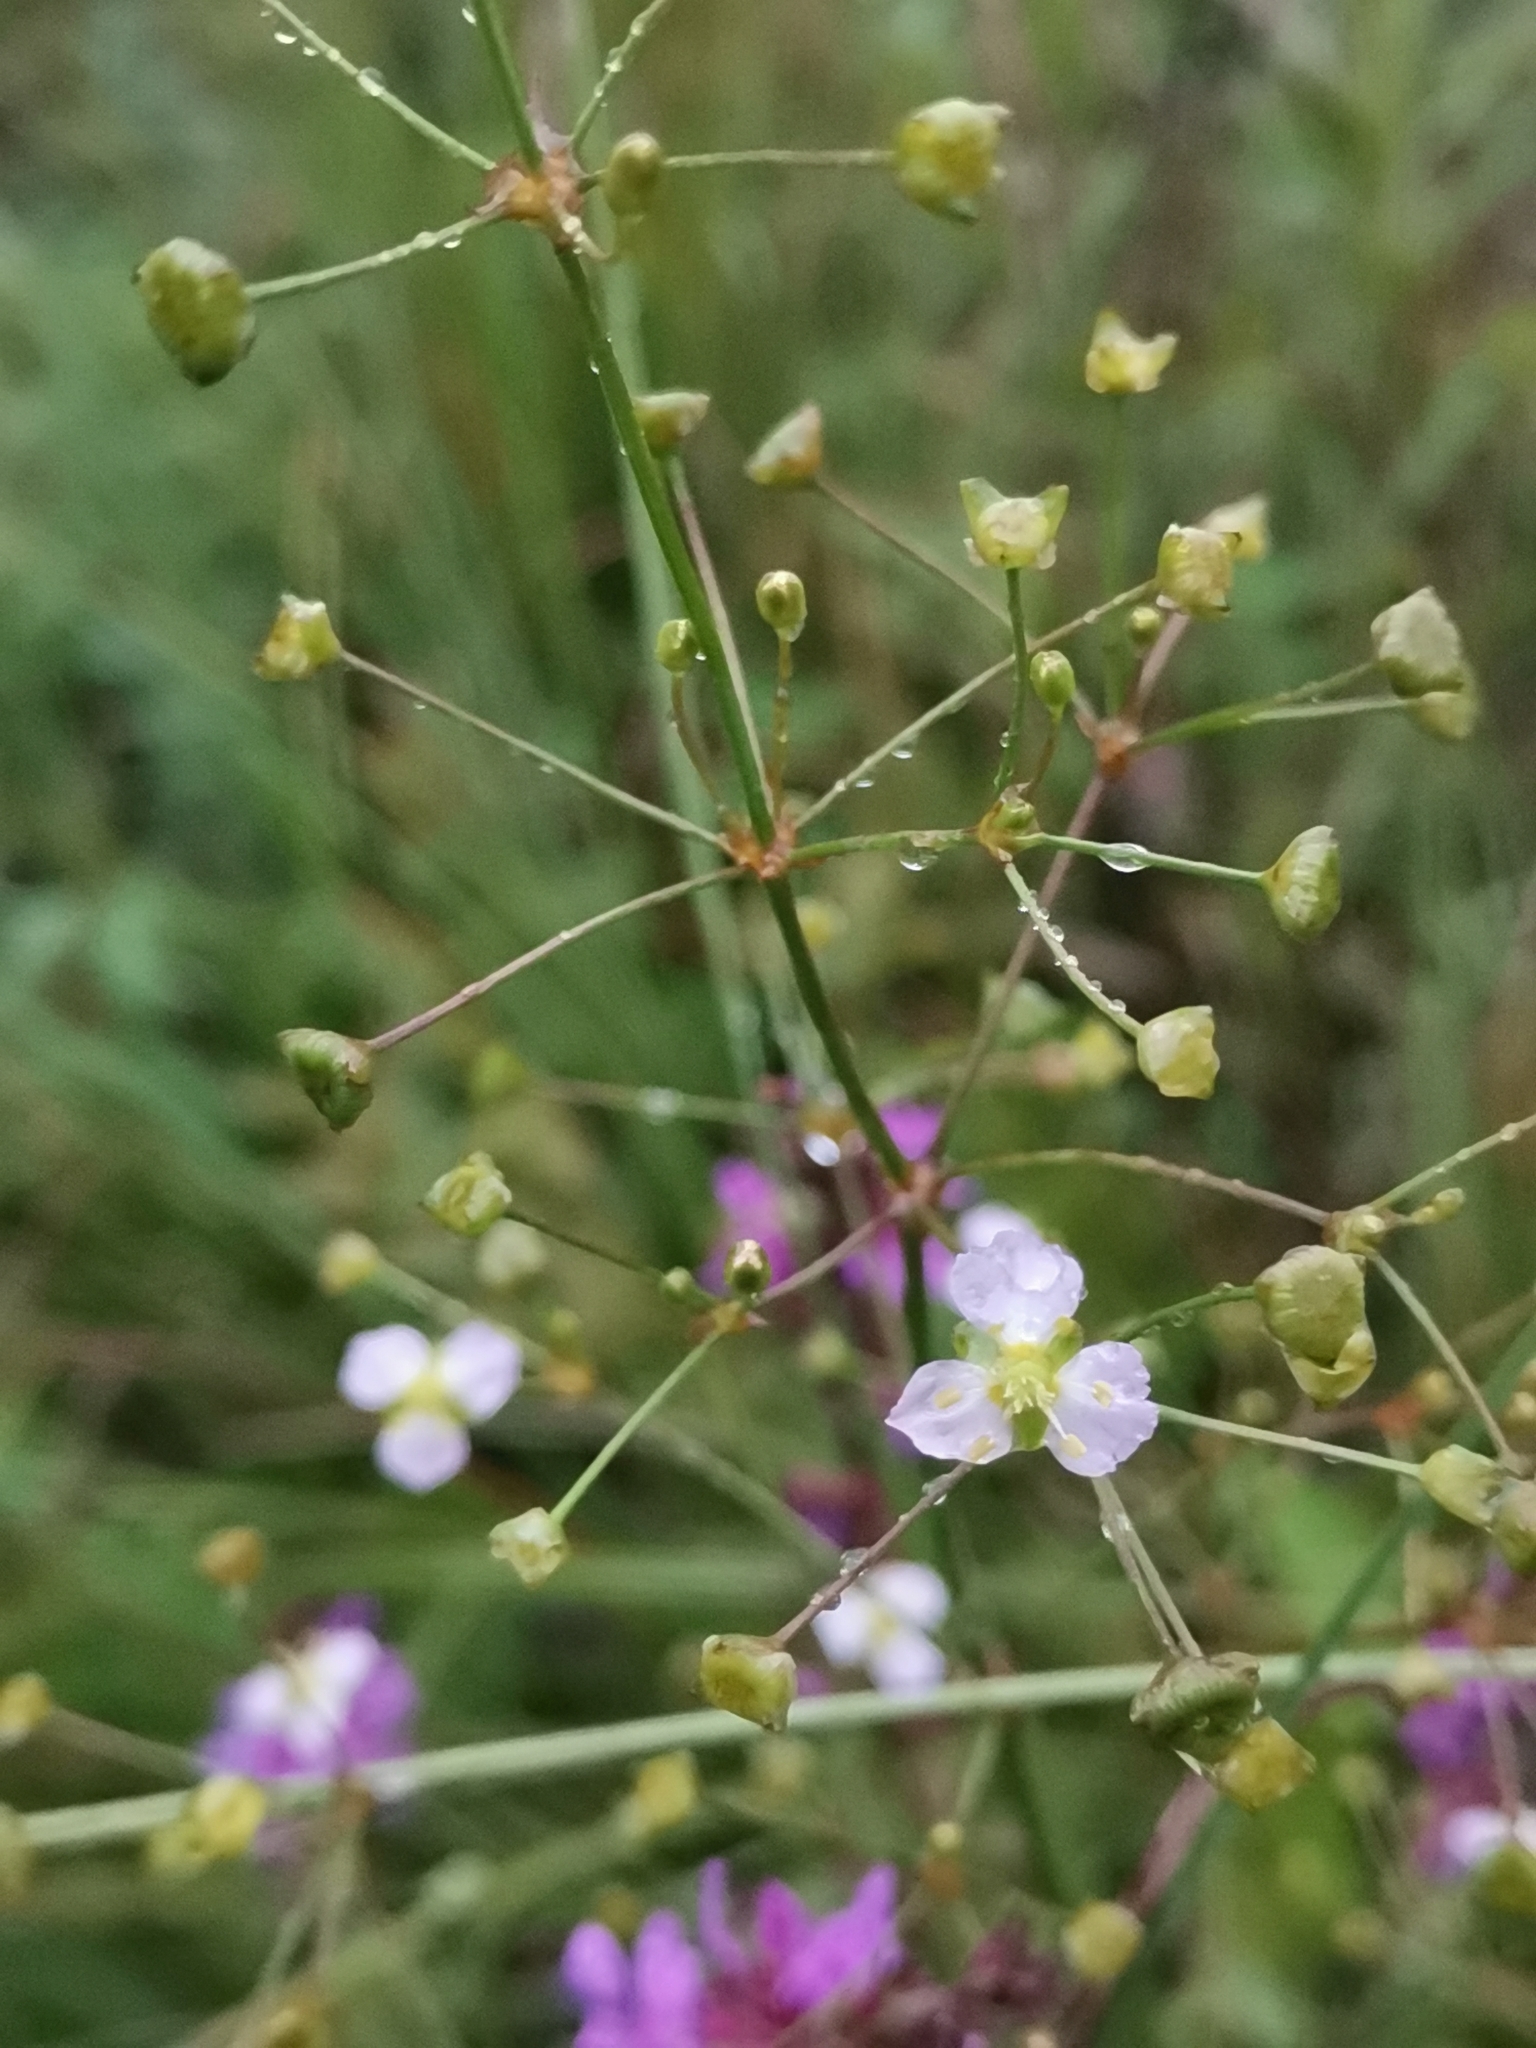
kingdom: Plantae
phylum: Tracheophyta
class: Liliopsida
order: Alismatales
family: Alismataceae
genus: Alisma
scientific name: Alisma plantago-aquatica
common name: Water-plantain
